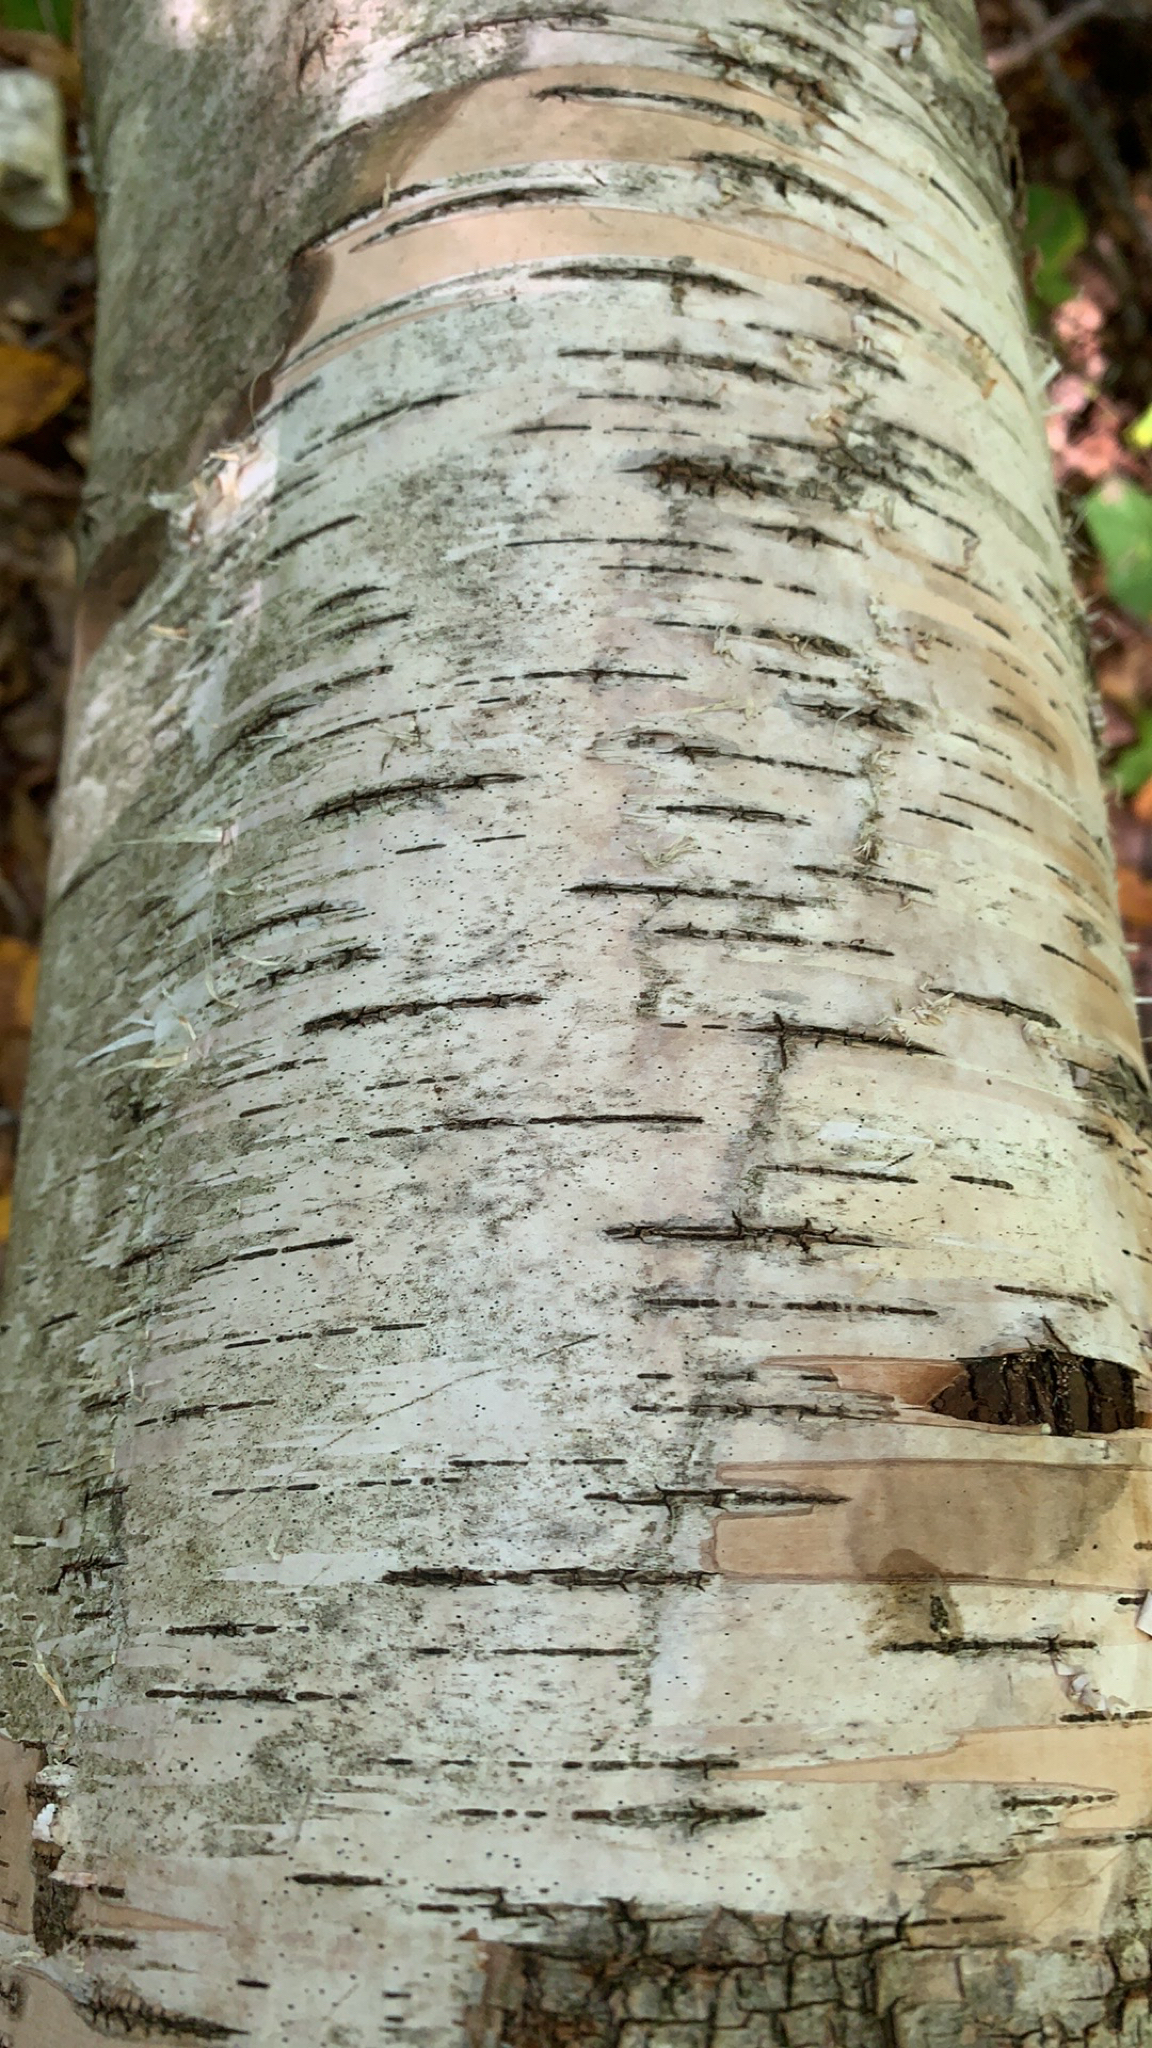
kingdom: Plantae
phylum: Tracheophyta
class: Magnoliopsida
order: Fagales
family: Betulaceae
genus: Betula
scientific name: Betula papyrifera
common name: Paper birch
